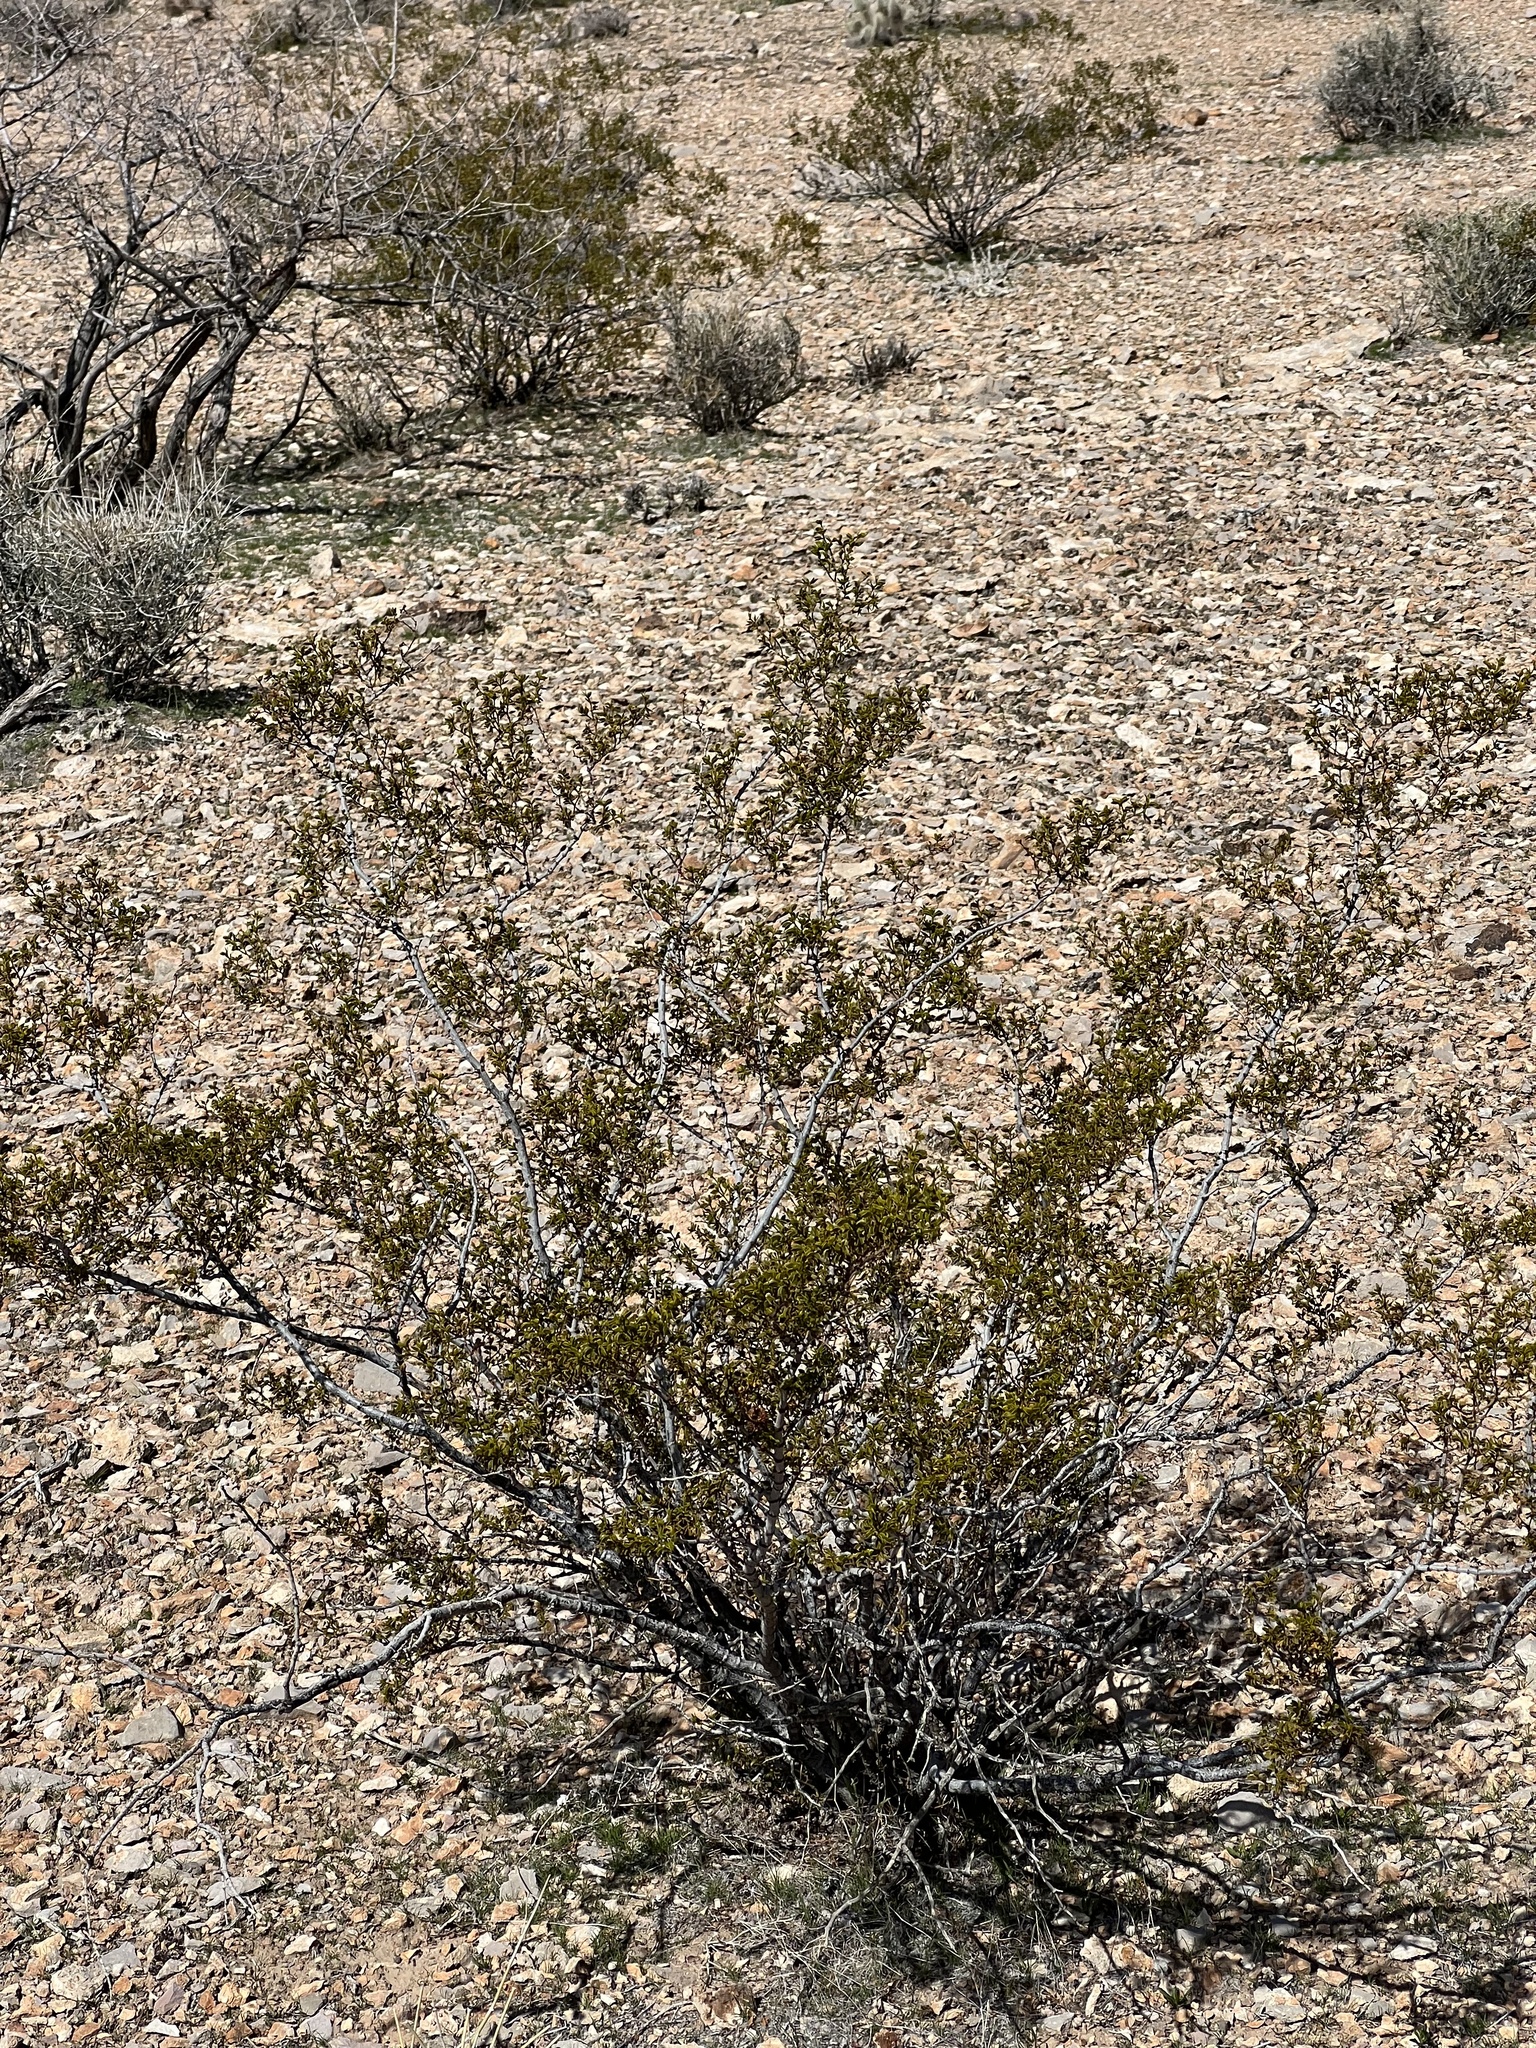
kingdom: Plantae
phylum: Tracheophyta
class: Magnoliopsida
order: Zygophyllales
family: Zygophyllaceae
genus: Larrea
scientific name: Larrea tridentata
